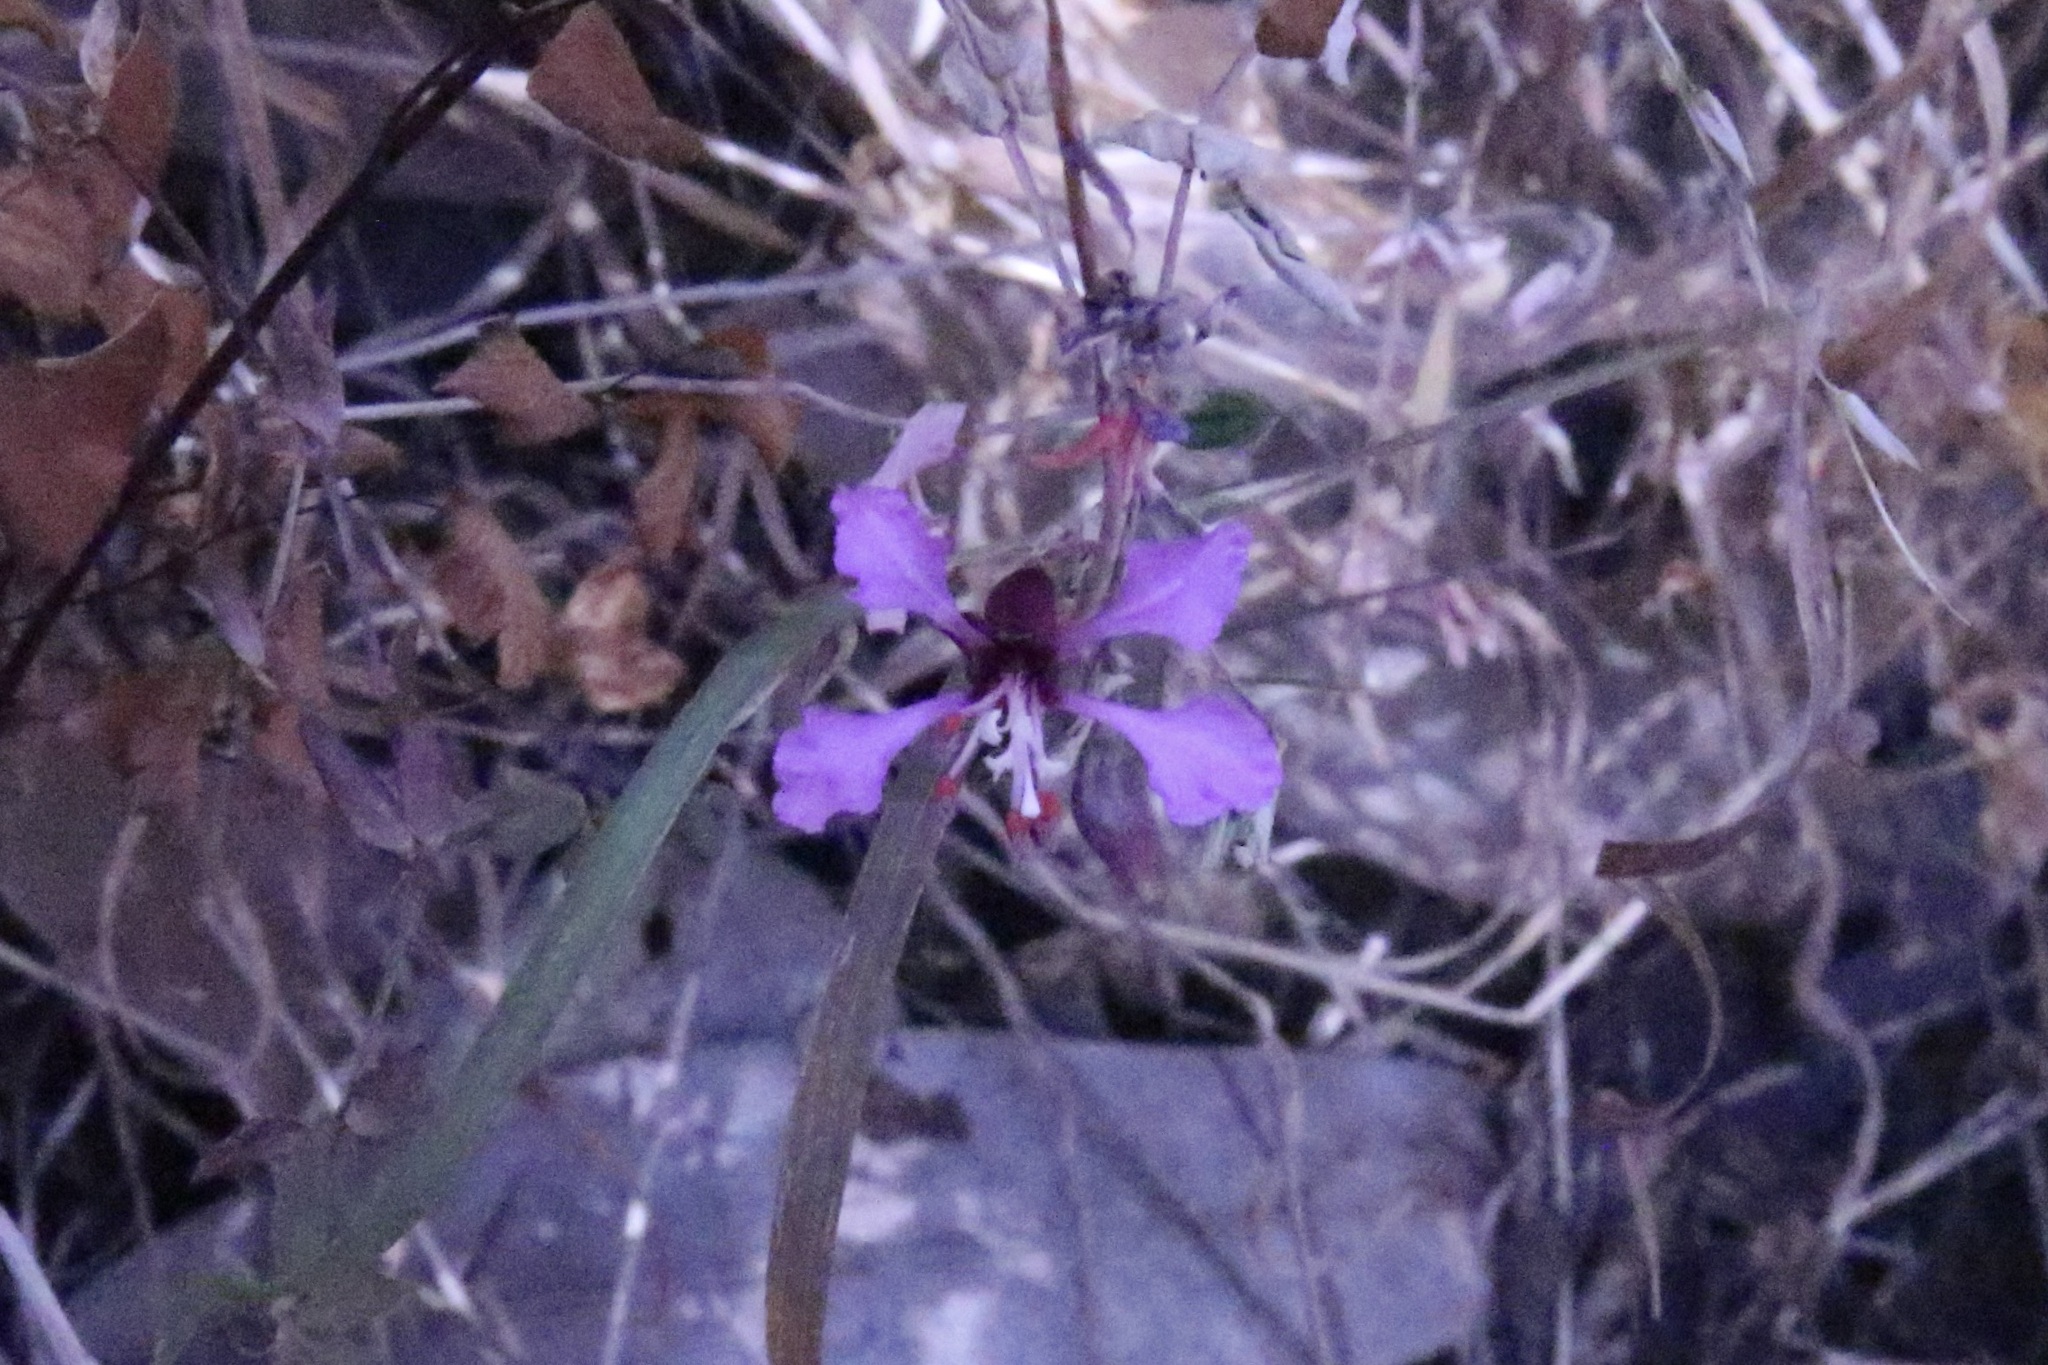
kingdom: Plantae
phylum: Tracheophyta
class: Magnoliopsida
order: Myrtales
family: Onagraceae
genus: Clarkia
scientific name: Clarkia unguiculata
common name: Clarkia
